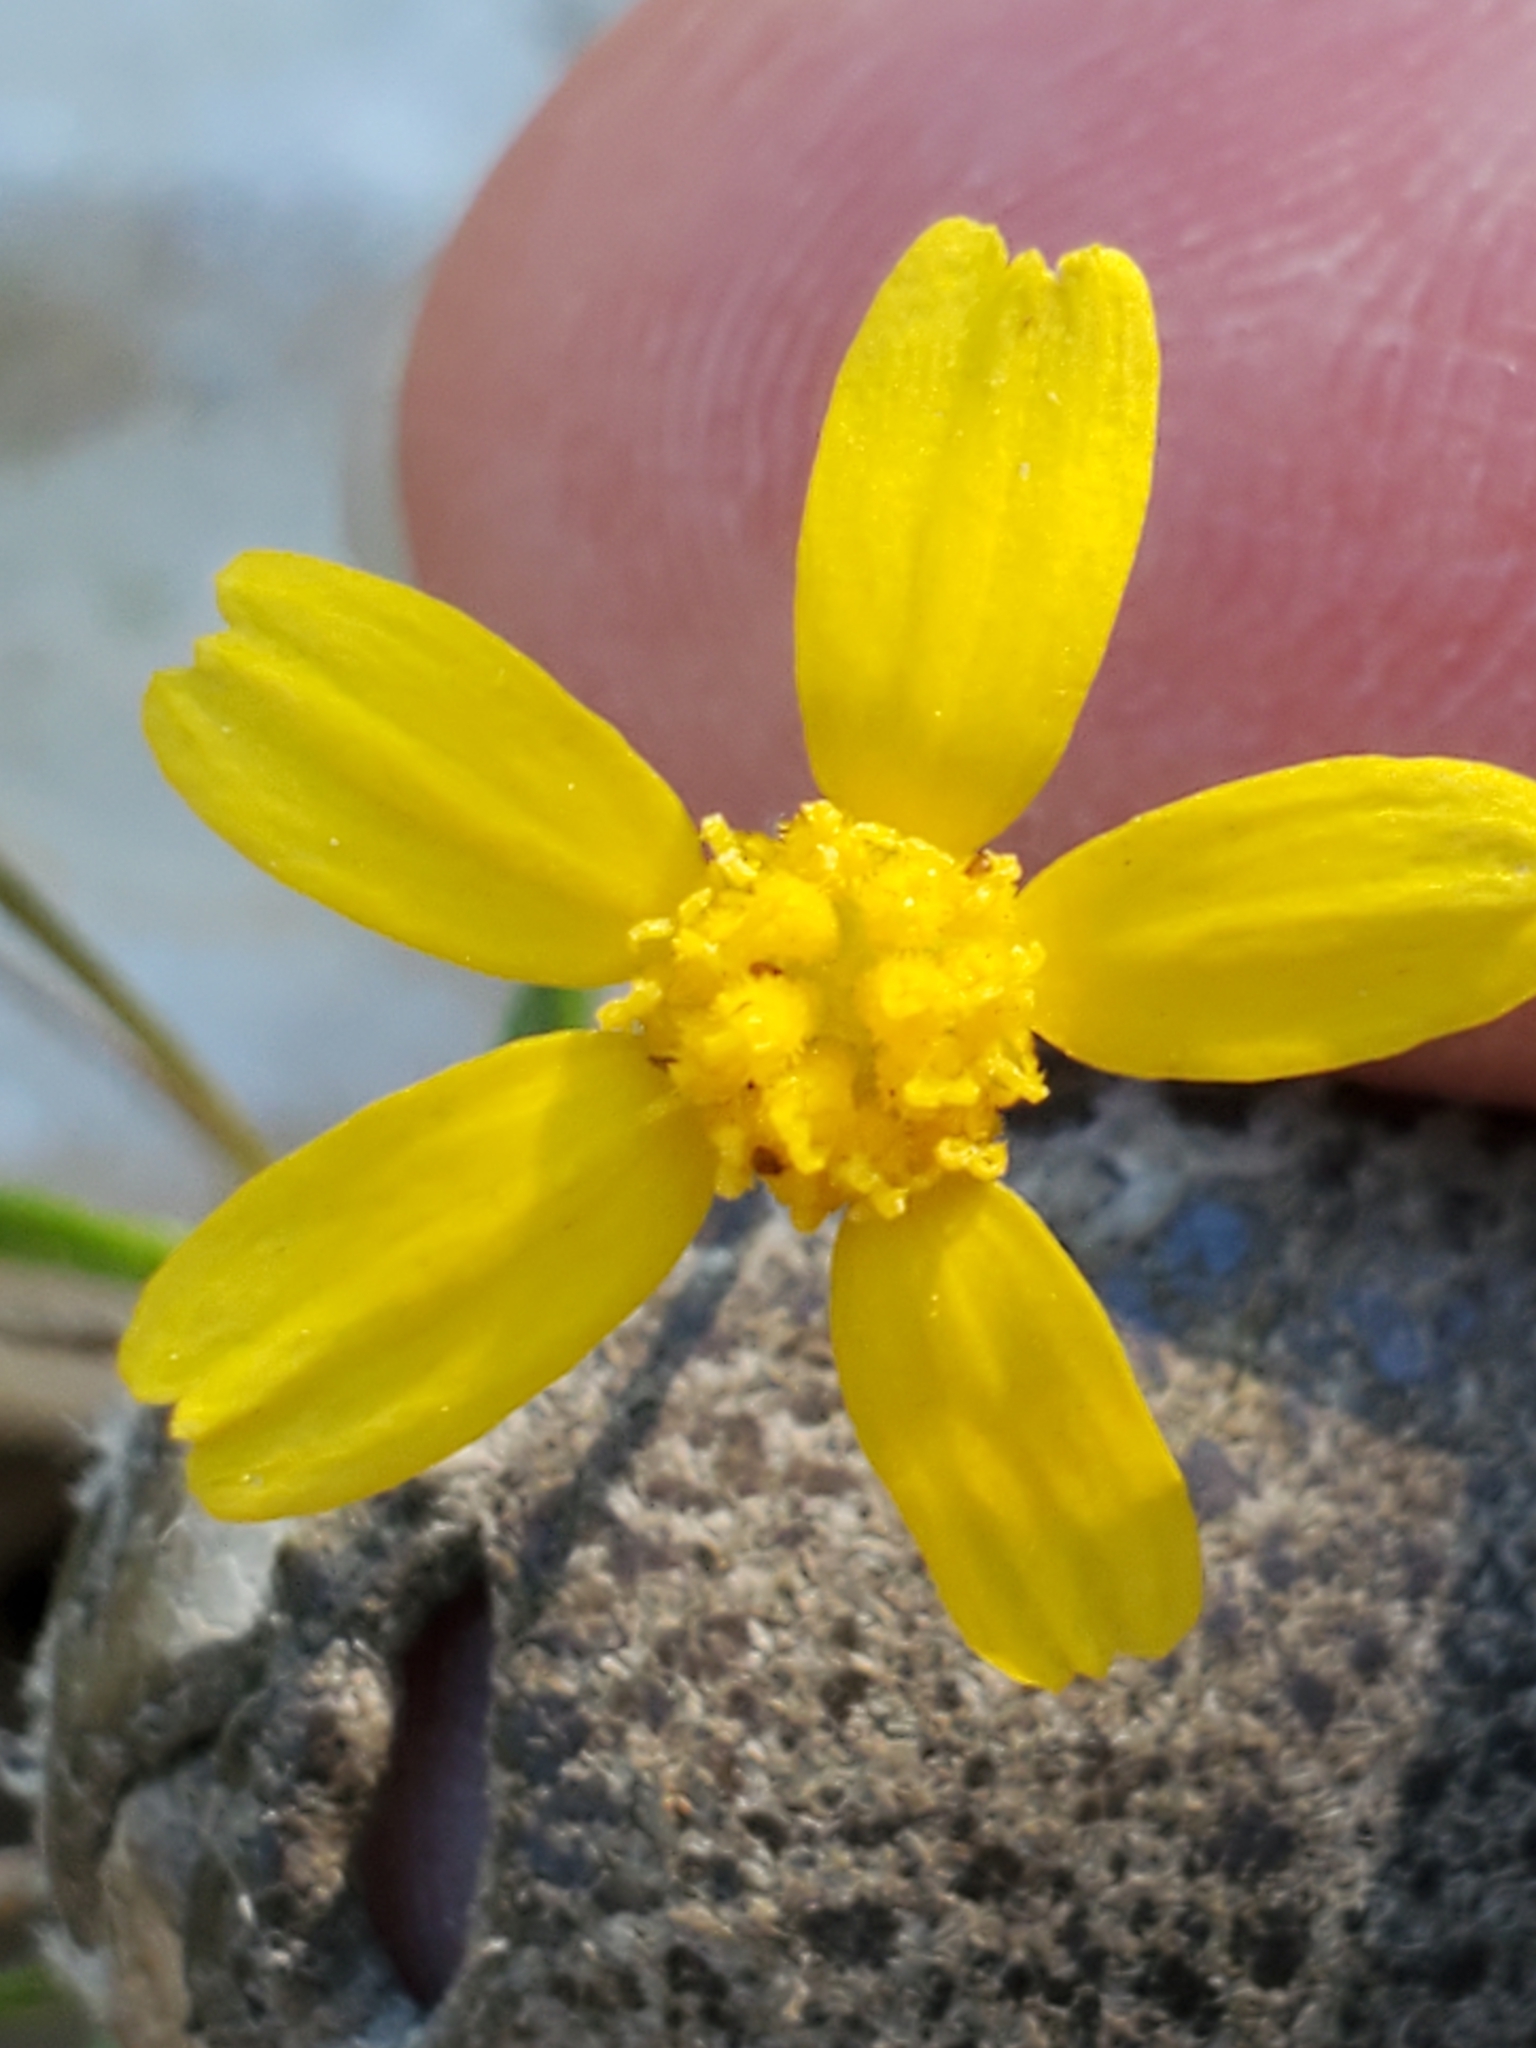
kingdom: Plantae
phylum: Tracheophyta
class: Magnoliopsida
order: Asterales
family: Asteraceae
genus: Tetraneuris
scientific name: Tetraneuris linearifolia
